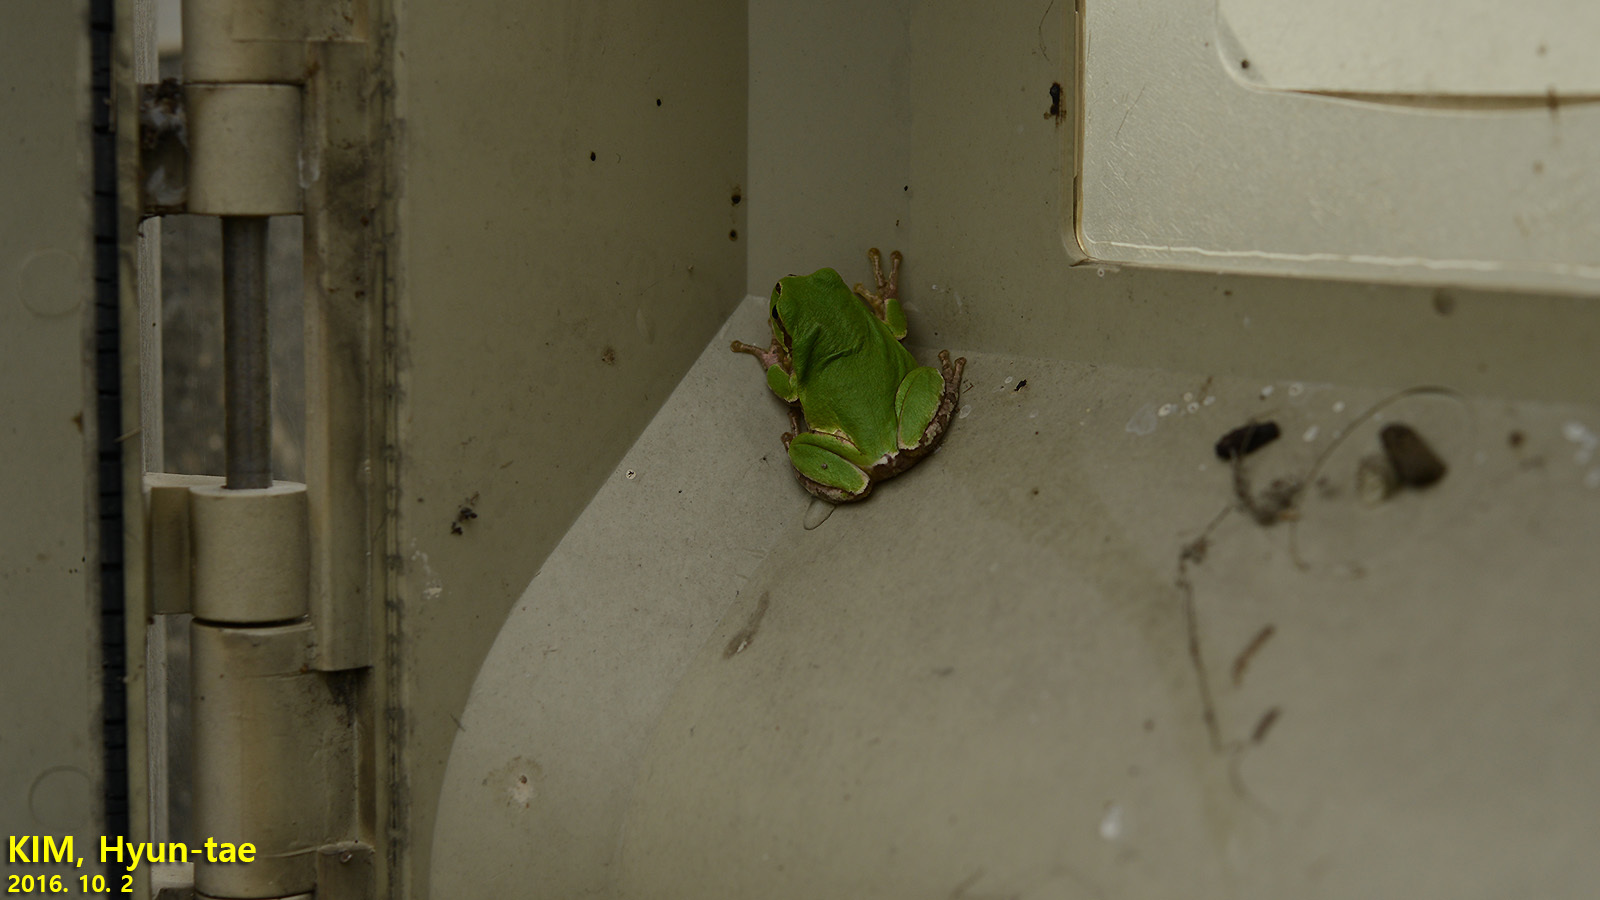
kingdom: Animalia
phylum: Chordata
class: Amphibia
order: Anura
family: Hylidae
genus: Dryophytes
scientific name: Dryophytes japonicus
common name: Japanese treefrog
